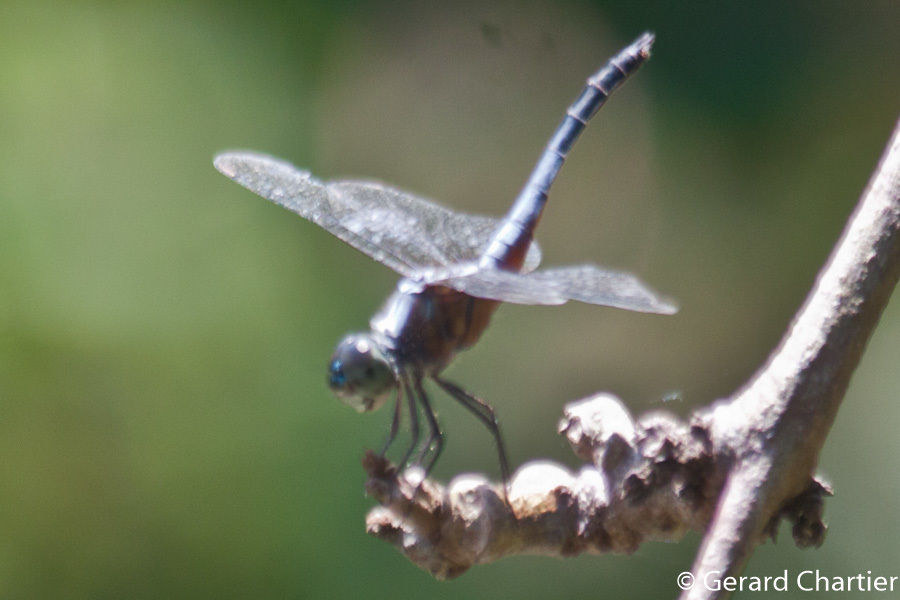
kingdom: Animalia
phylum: Arthropoda
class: Insecta
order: Odonata
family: Libellulidae
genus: Brachydiplax
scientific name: Brachydiplax chalybea
